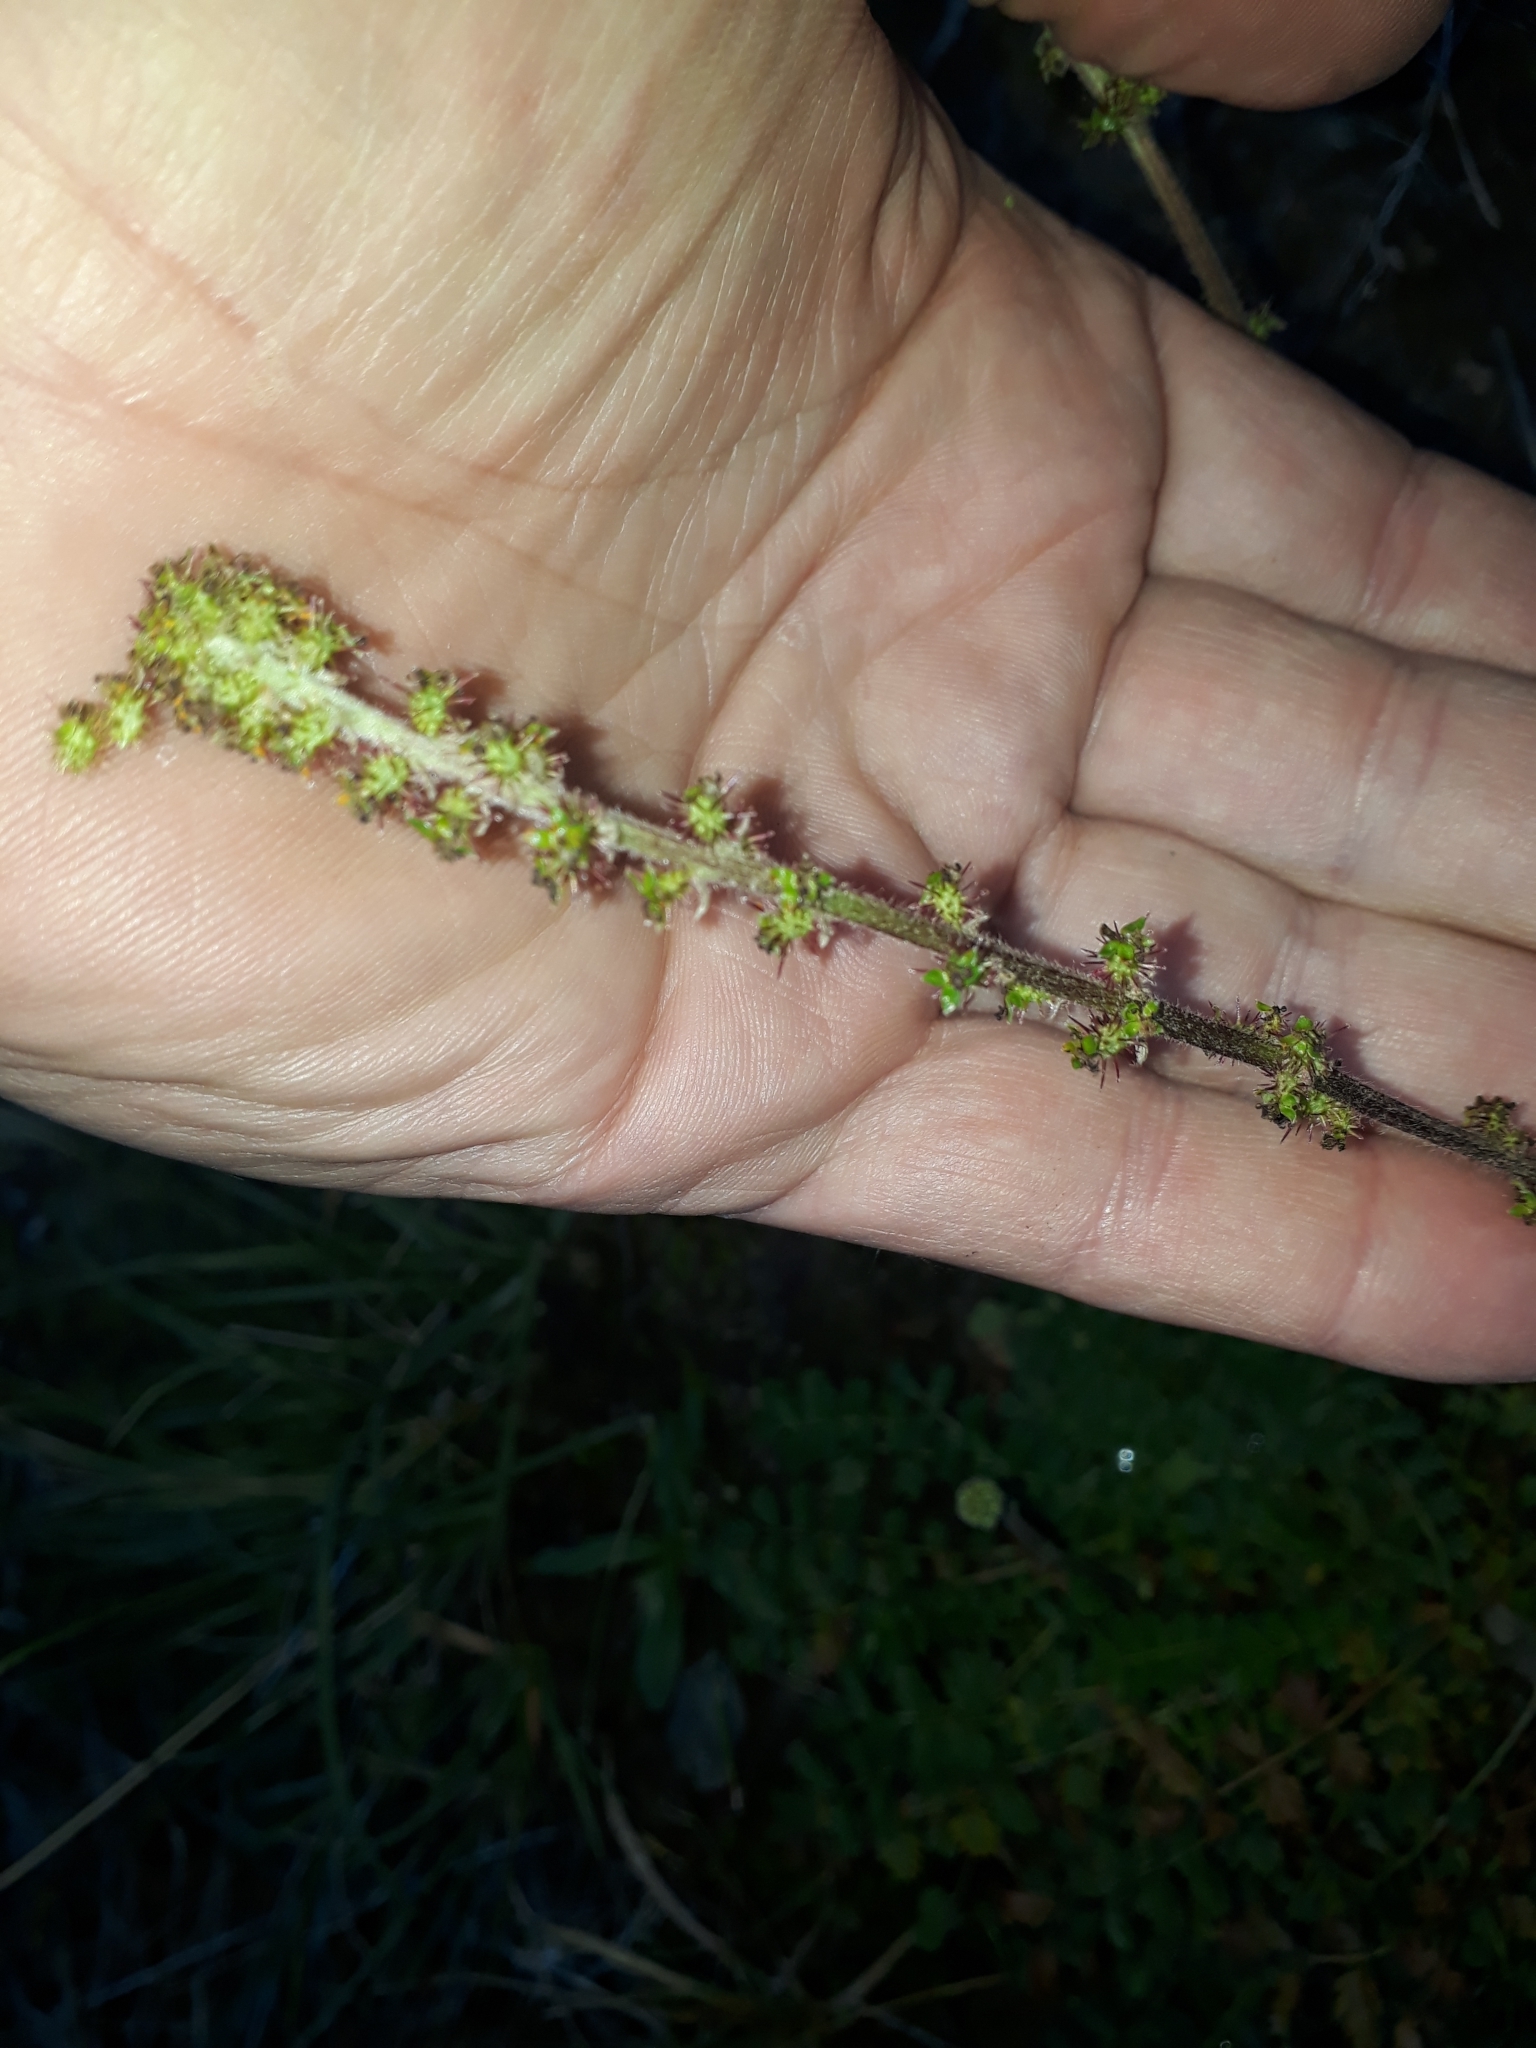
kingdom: Plantae
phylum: Tracheophyta
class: Magnoliopsida
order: Rosales
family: Rosaceae
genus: Acaena
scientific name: Acaena agnipila
